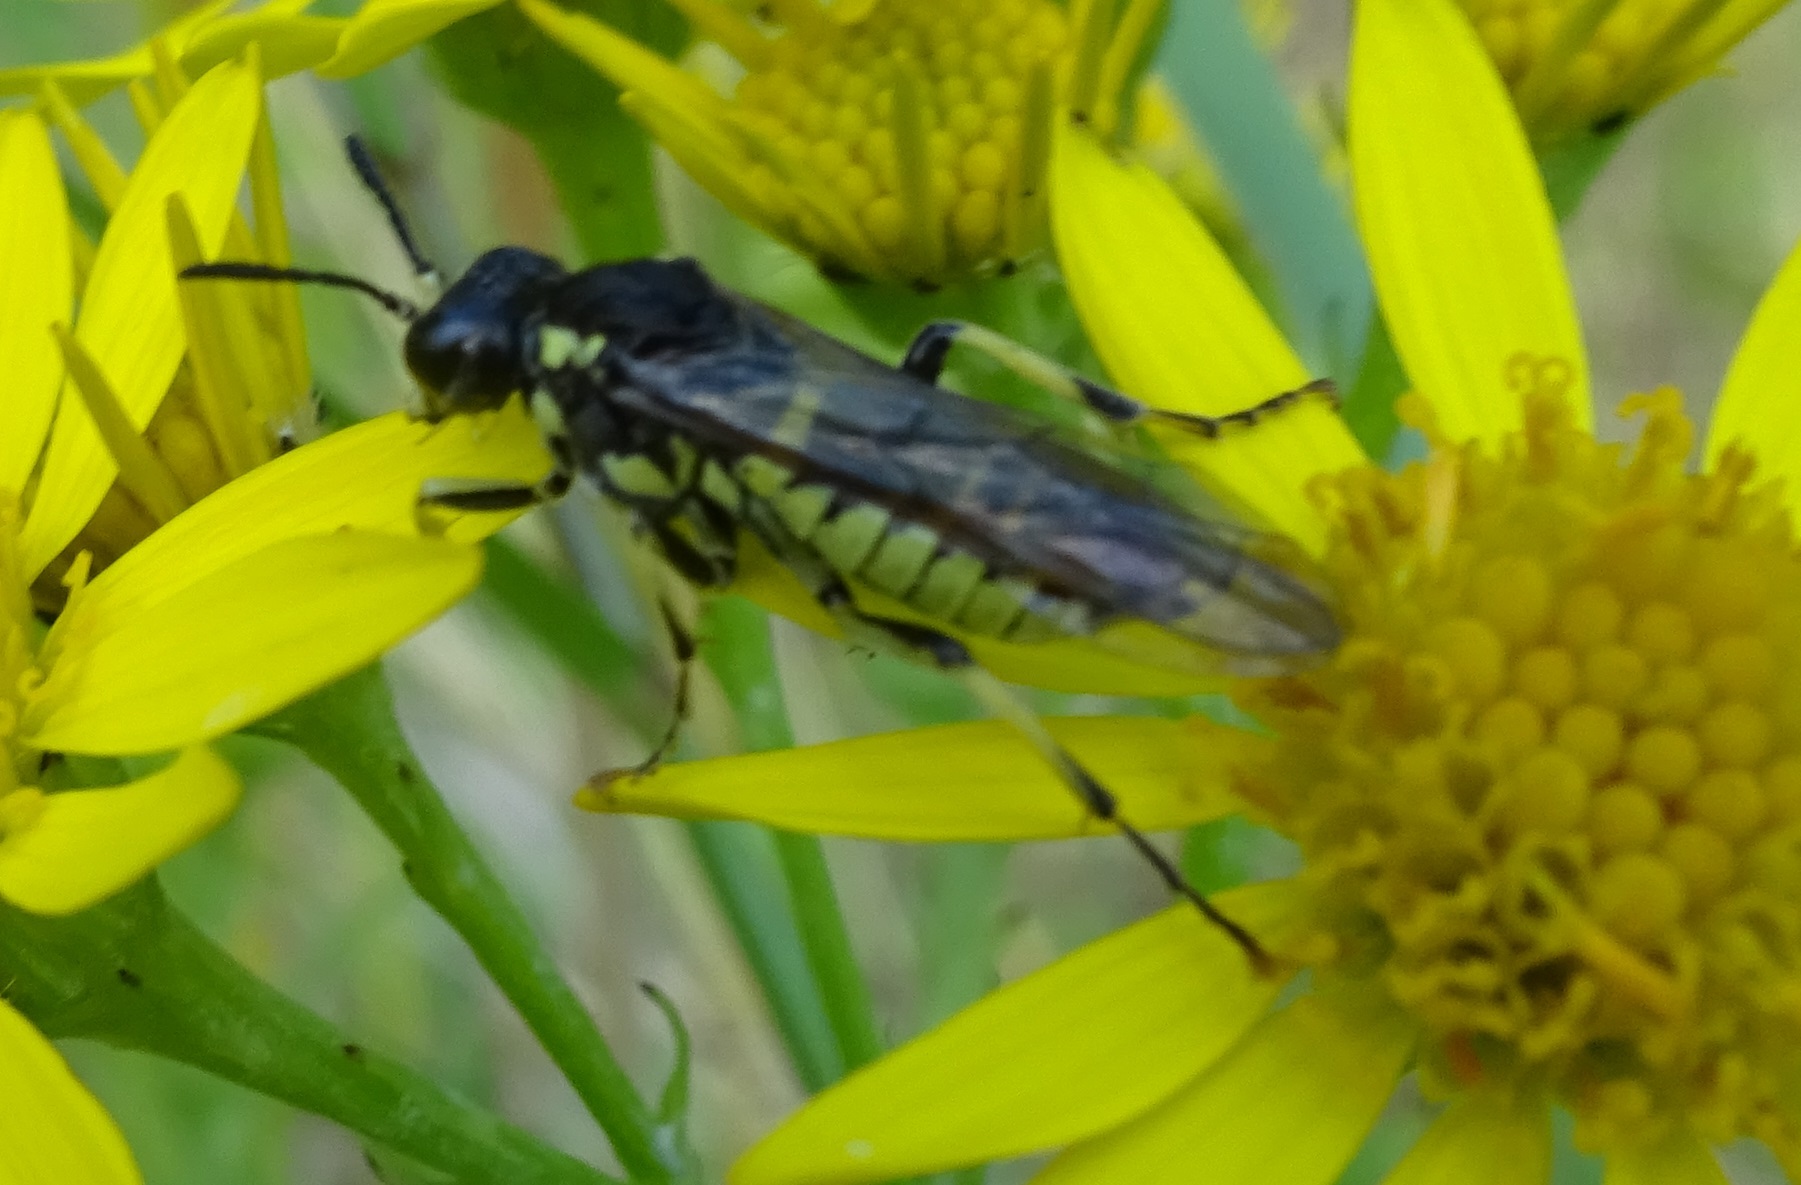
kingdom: Animalia
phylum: Arthropoda
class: Insecta
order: Hymenoptera
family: Tenthredinidae
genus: Tenthredo
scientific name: Tenthredo notha
